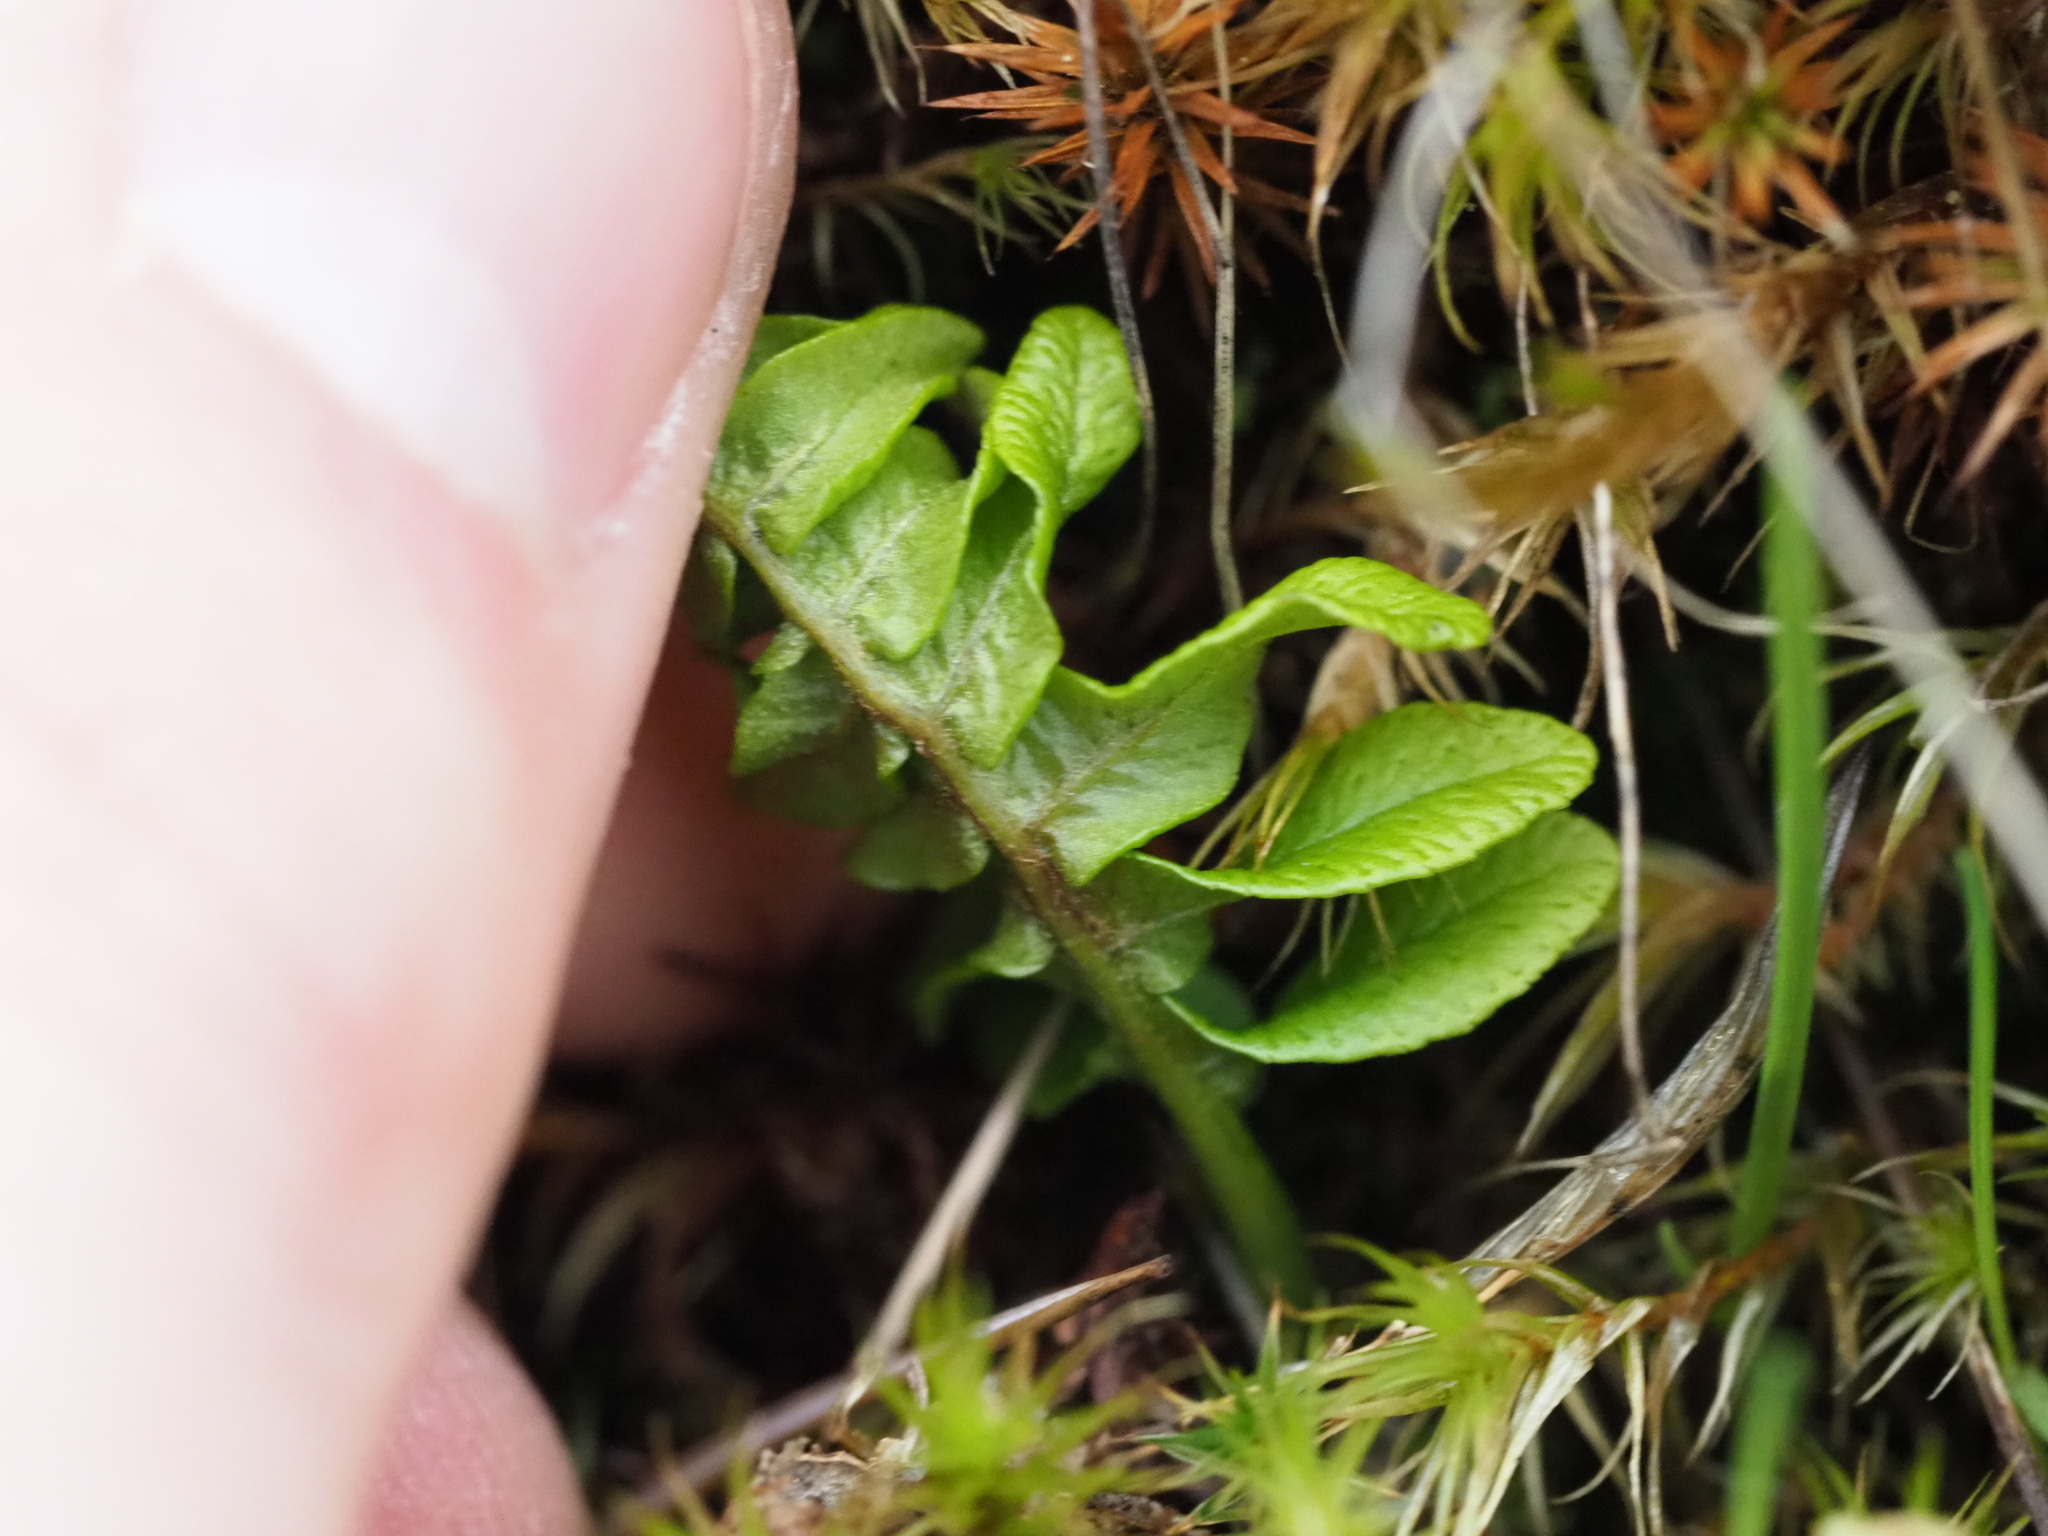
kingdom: Plantae
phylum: Tracheophyta
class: Polypodiopsida
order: Polypodiales
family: Polypodiaceae
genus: Polypodium
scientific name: Polypodium glycyrrhiza
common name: Licorice fern
